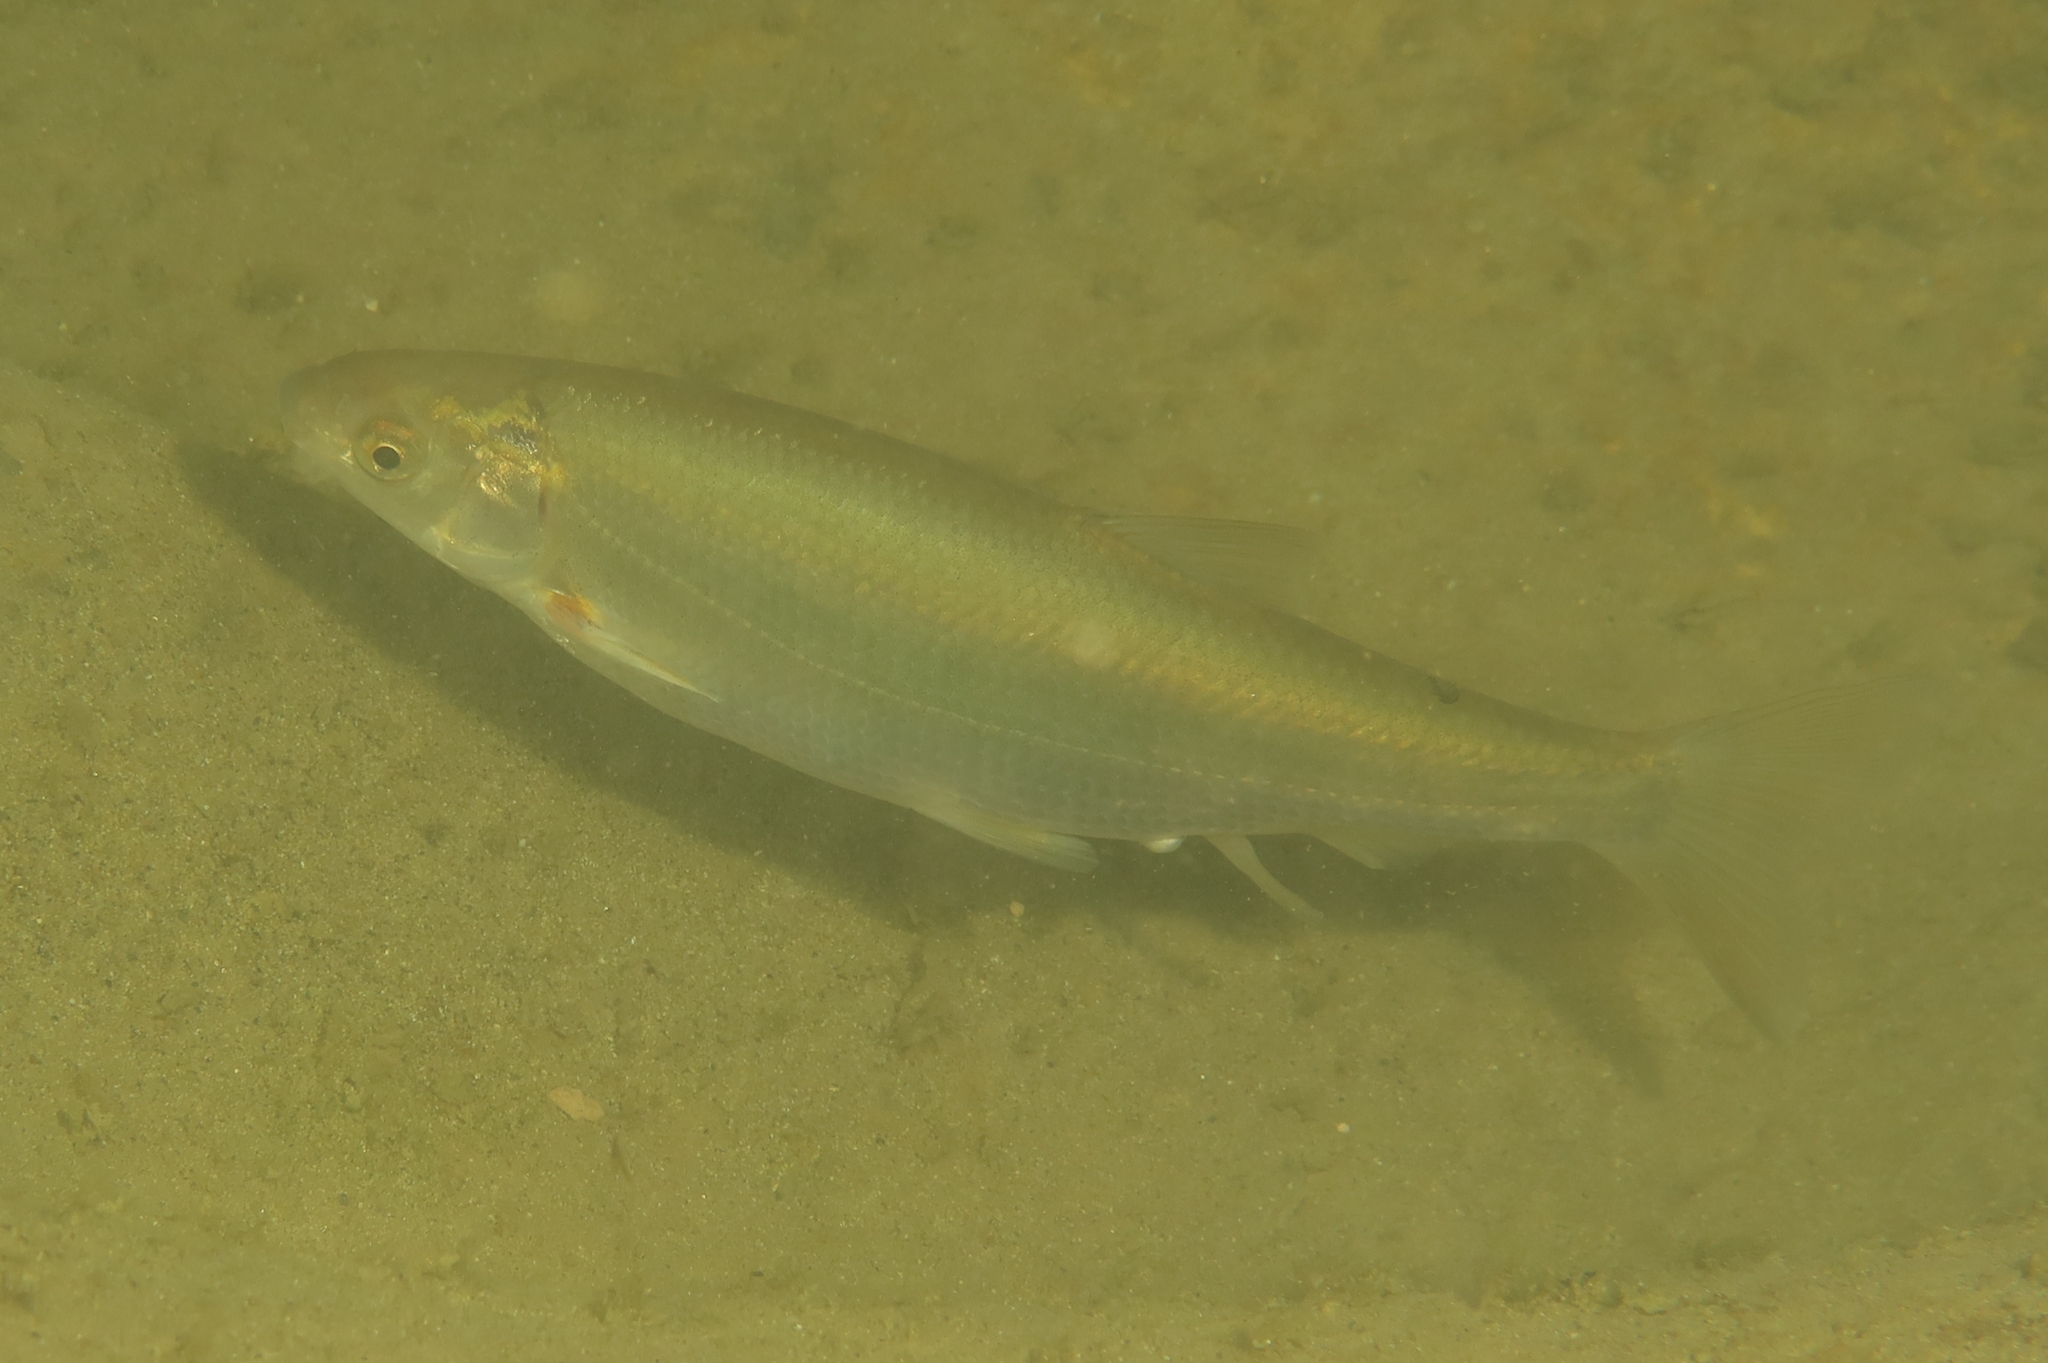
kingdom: Animalia
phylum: Chordata
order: Cypriniformes
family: Cyprinidae
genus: Parachondrostoma
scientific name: Parachondrostoma toxostoma
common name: Toxostome
